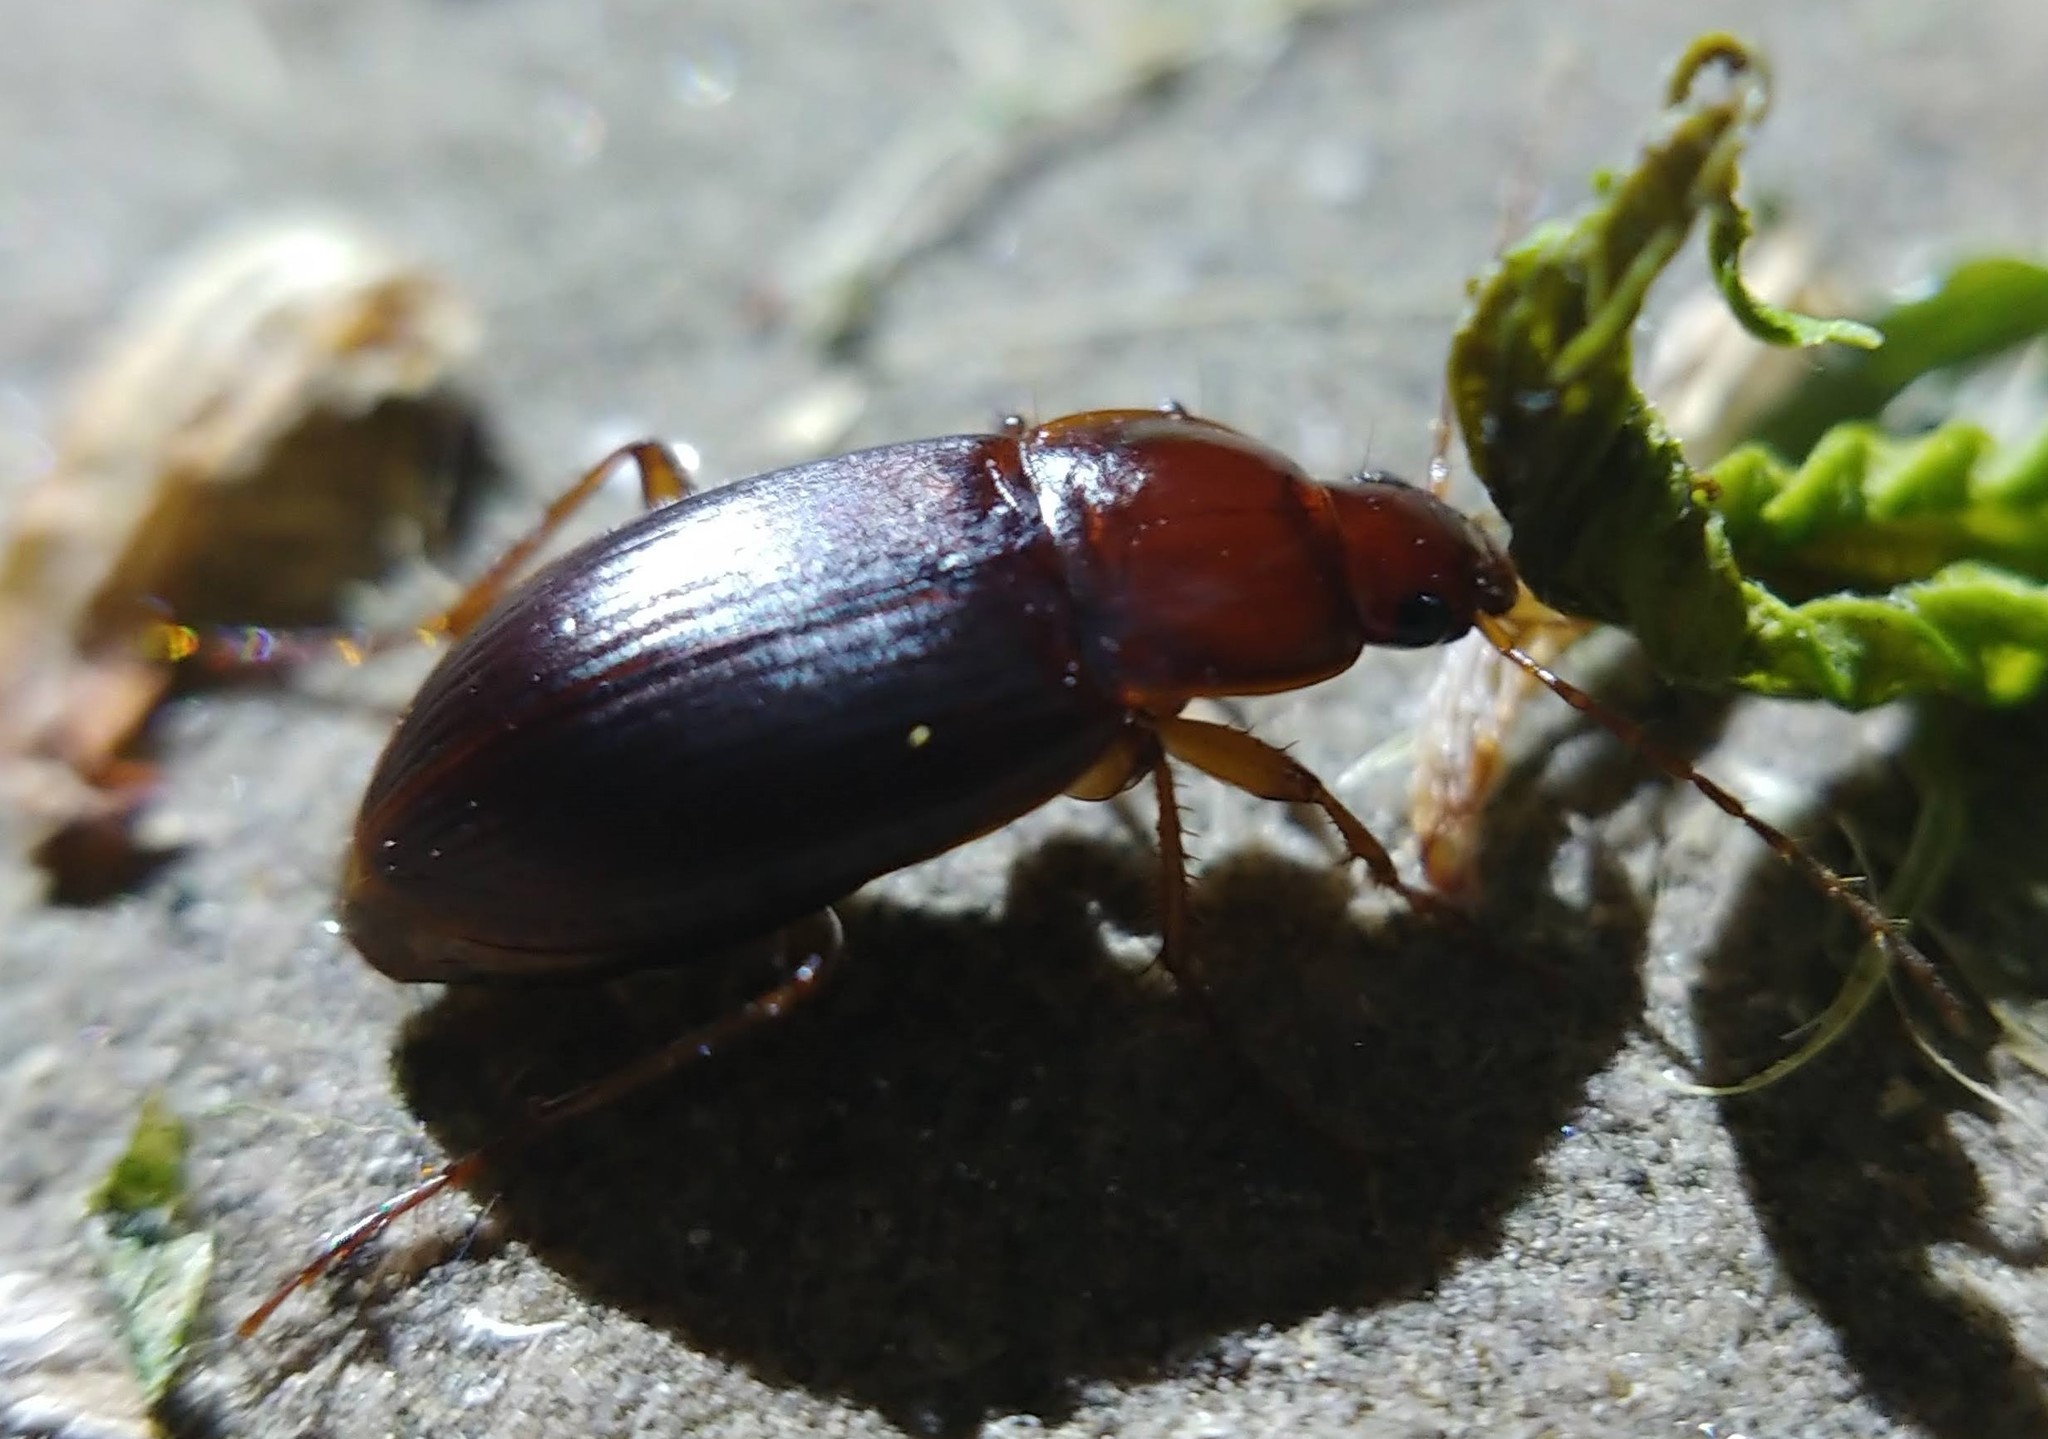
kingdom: Animalia
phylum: Arthropoda
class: Insecta
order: Coleoptera
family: Carabidae
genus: Calathus
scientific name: Calathus ruficollis
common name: Red-collared harp ground beetle
